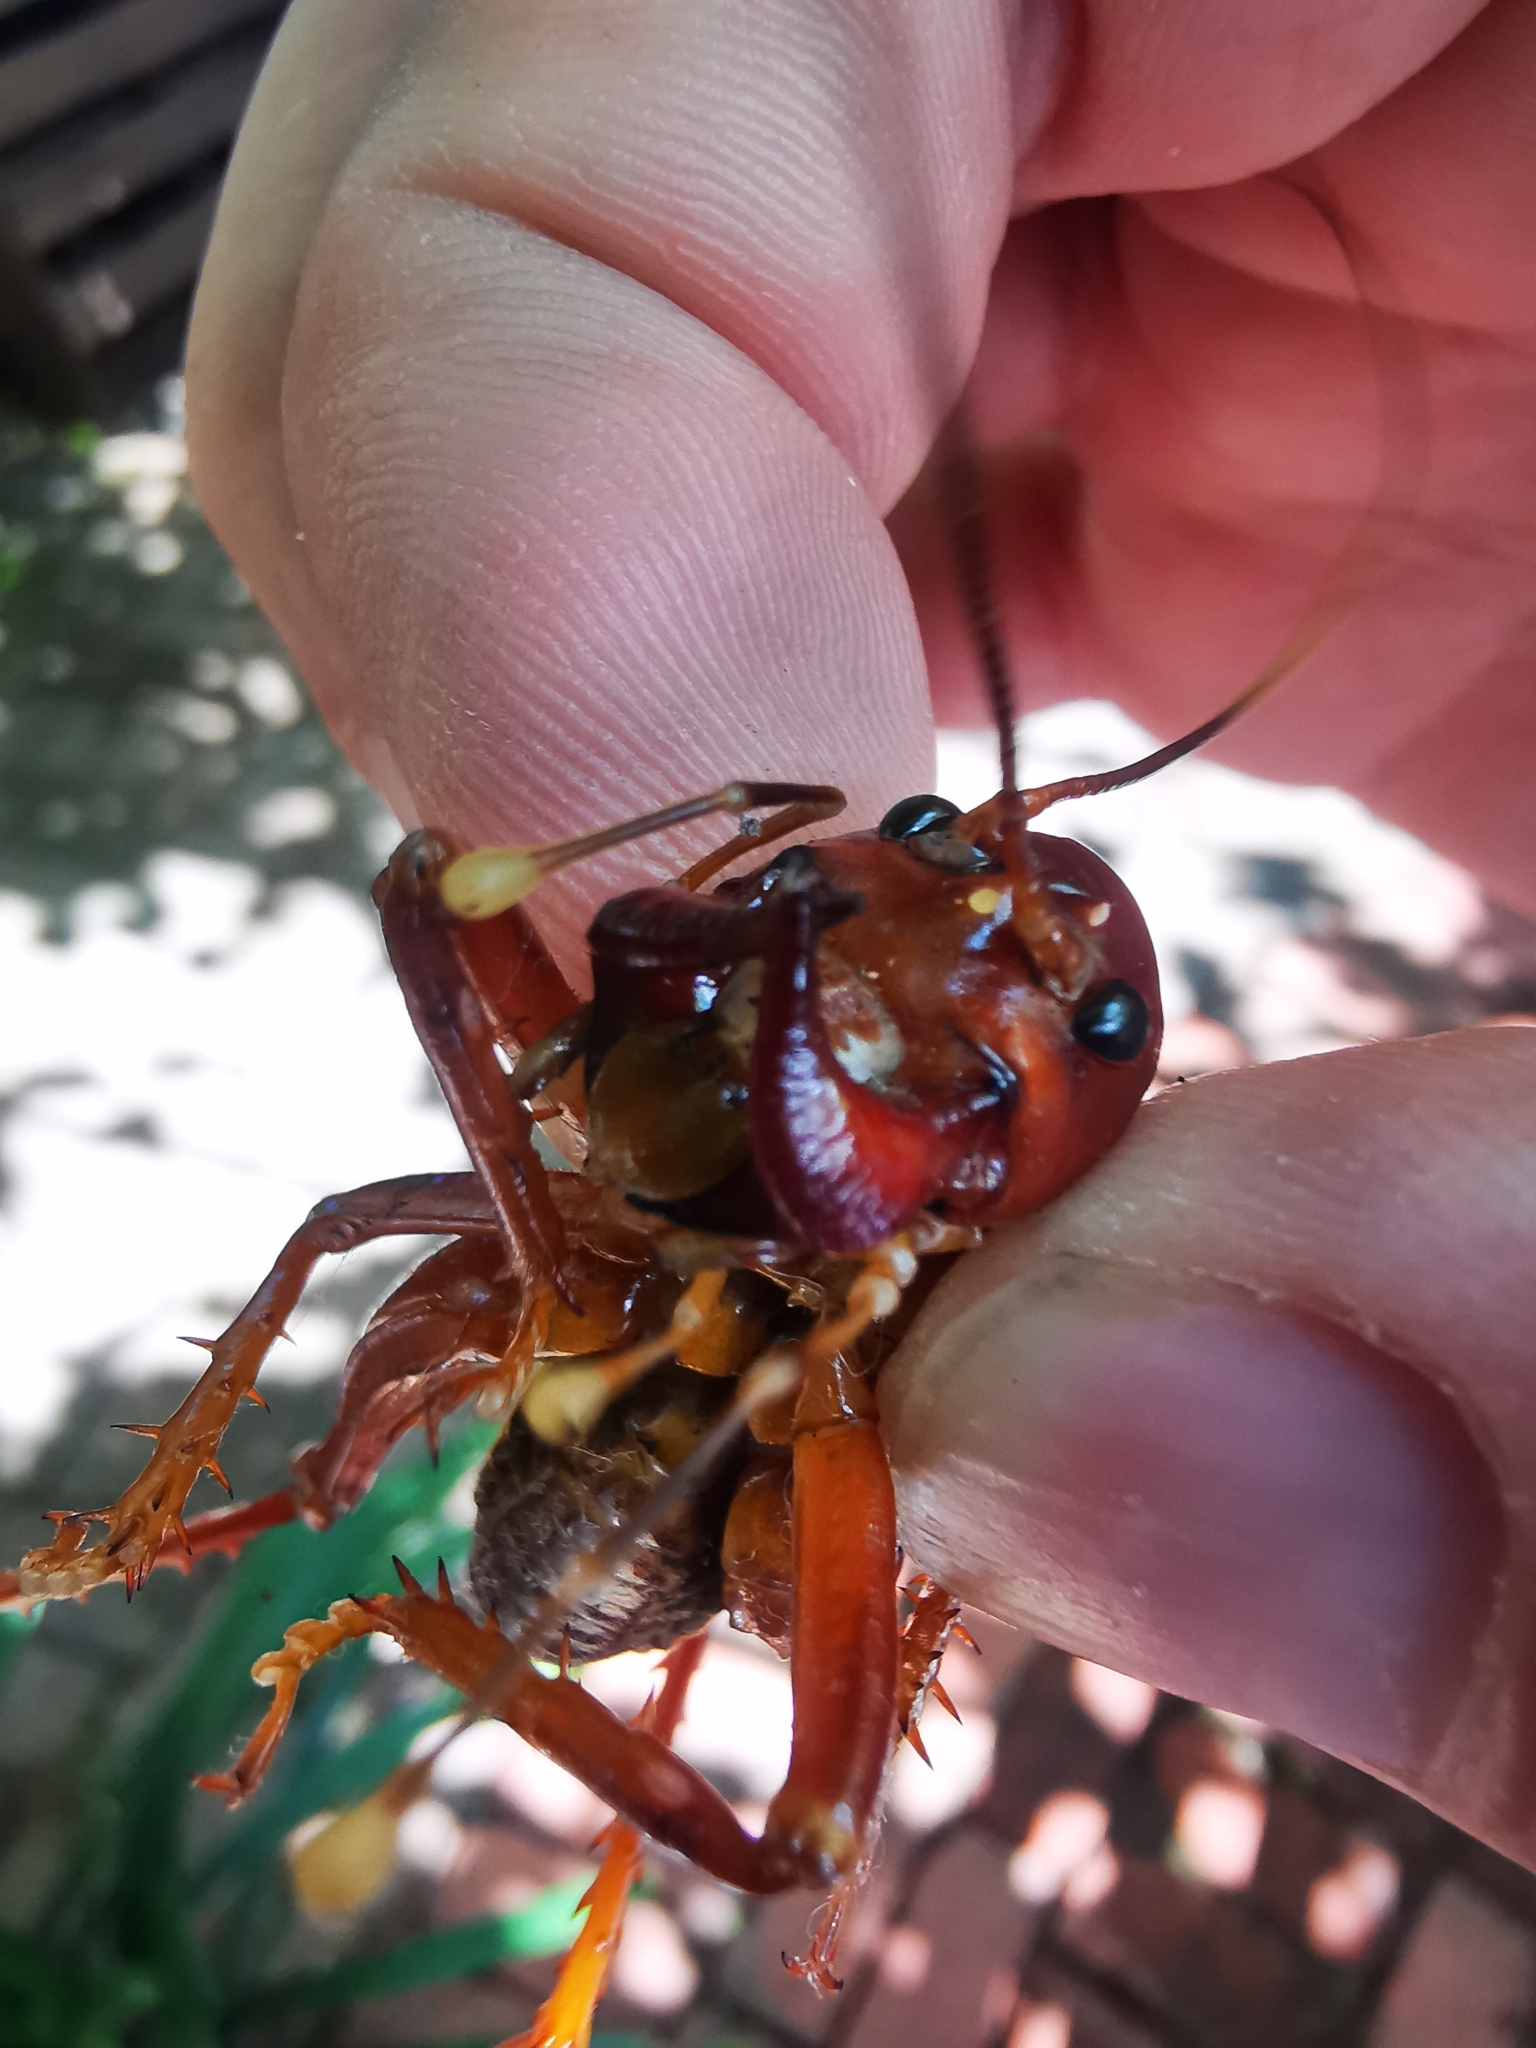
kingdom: Animalia
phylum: Arthropoda
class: Insecta
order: Orthoptera
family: Anostostomatidae
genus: Libanasidus
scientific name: Libanasidus vittatus
